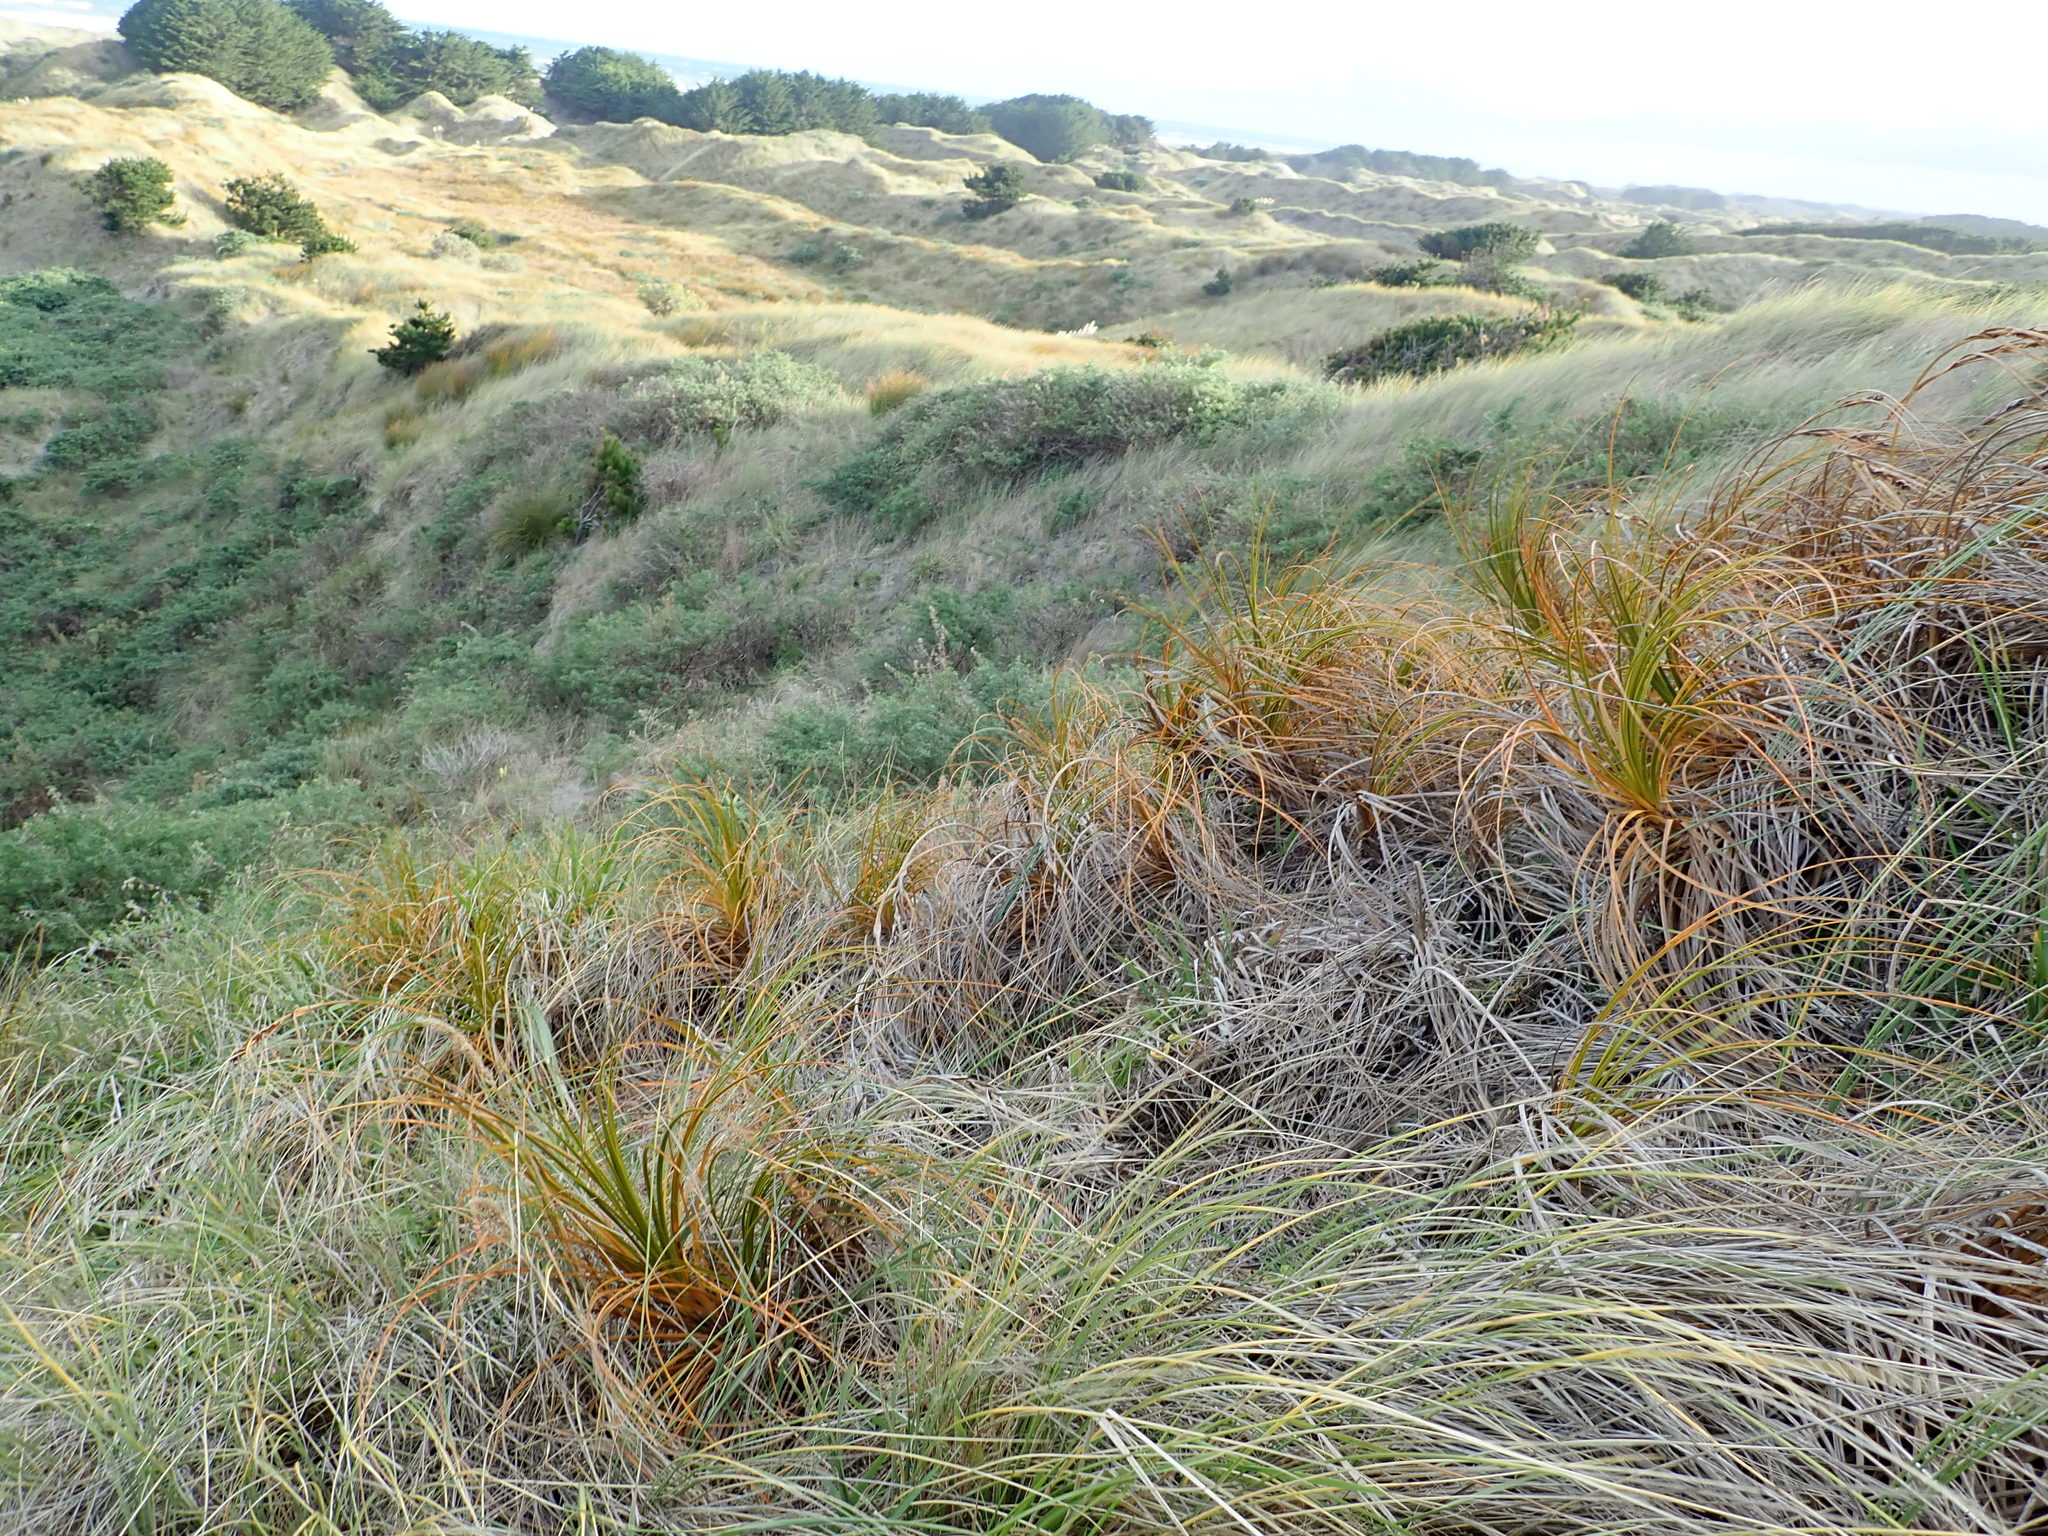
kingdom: Plantae
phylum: Tracheophyta
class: Liliopsida
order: Poales
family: Cyperaceae
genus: Ficinia
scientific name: Ficinia spiralis
